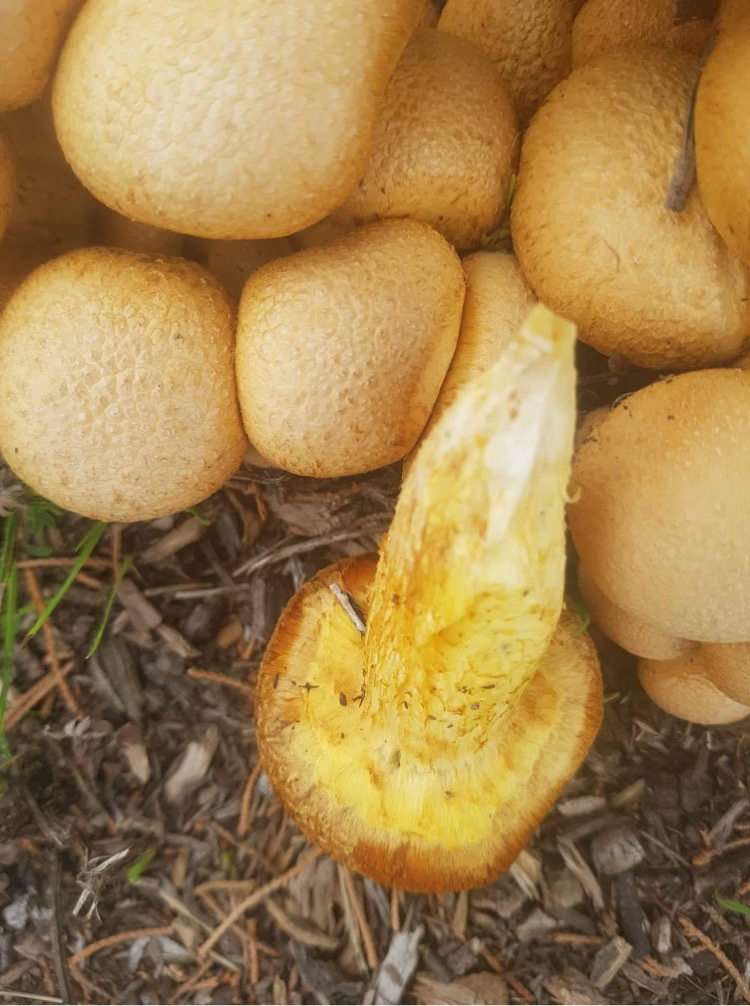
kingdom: Fungi
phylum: Basidiomycota
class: Agaricomycetes
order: Agaricales
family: Hymenogastraceae
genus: Gymnopilus
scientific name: Gymnopilus junonius
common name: Spectacular rustgill
